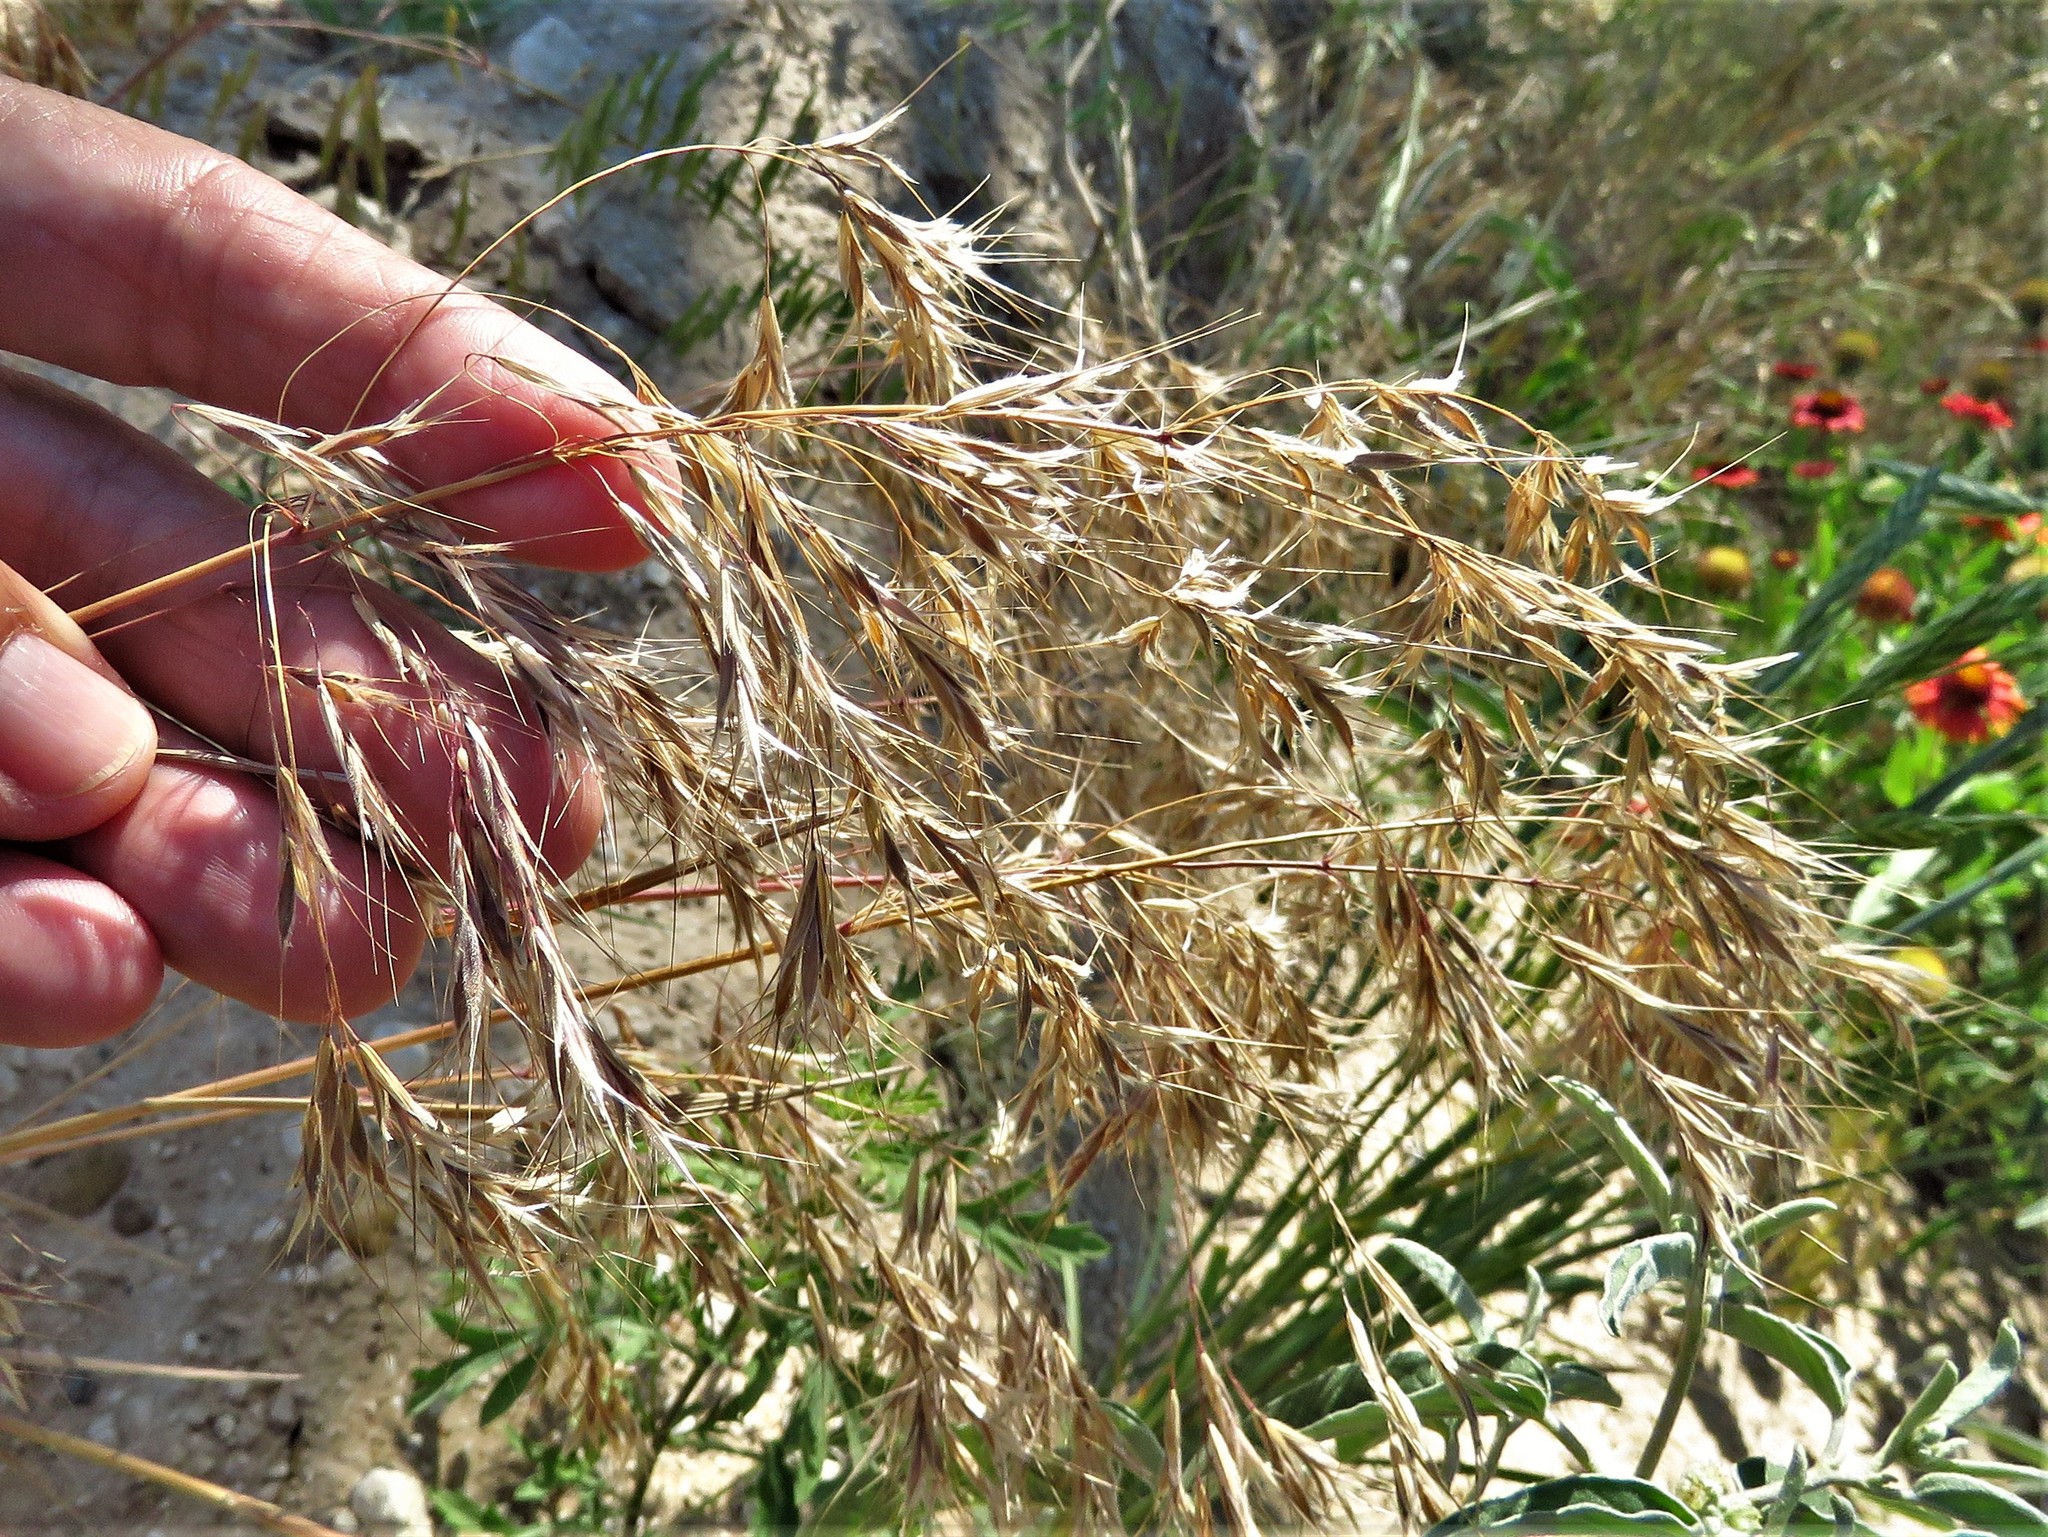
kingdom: Plantae
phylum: Tracheophyta
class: Liliopsida
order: Poales
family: Poaceae
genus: Bromus
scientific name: Bromus tectorum
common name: Cheatgrass
